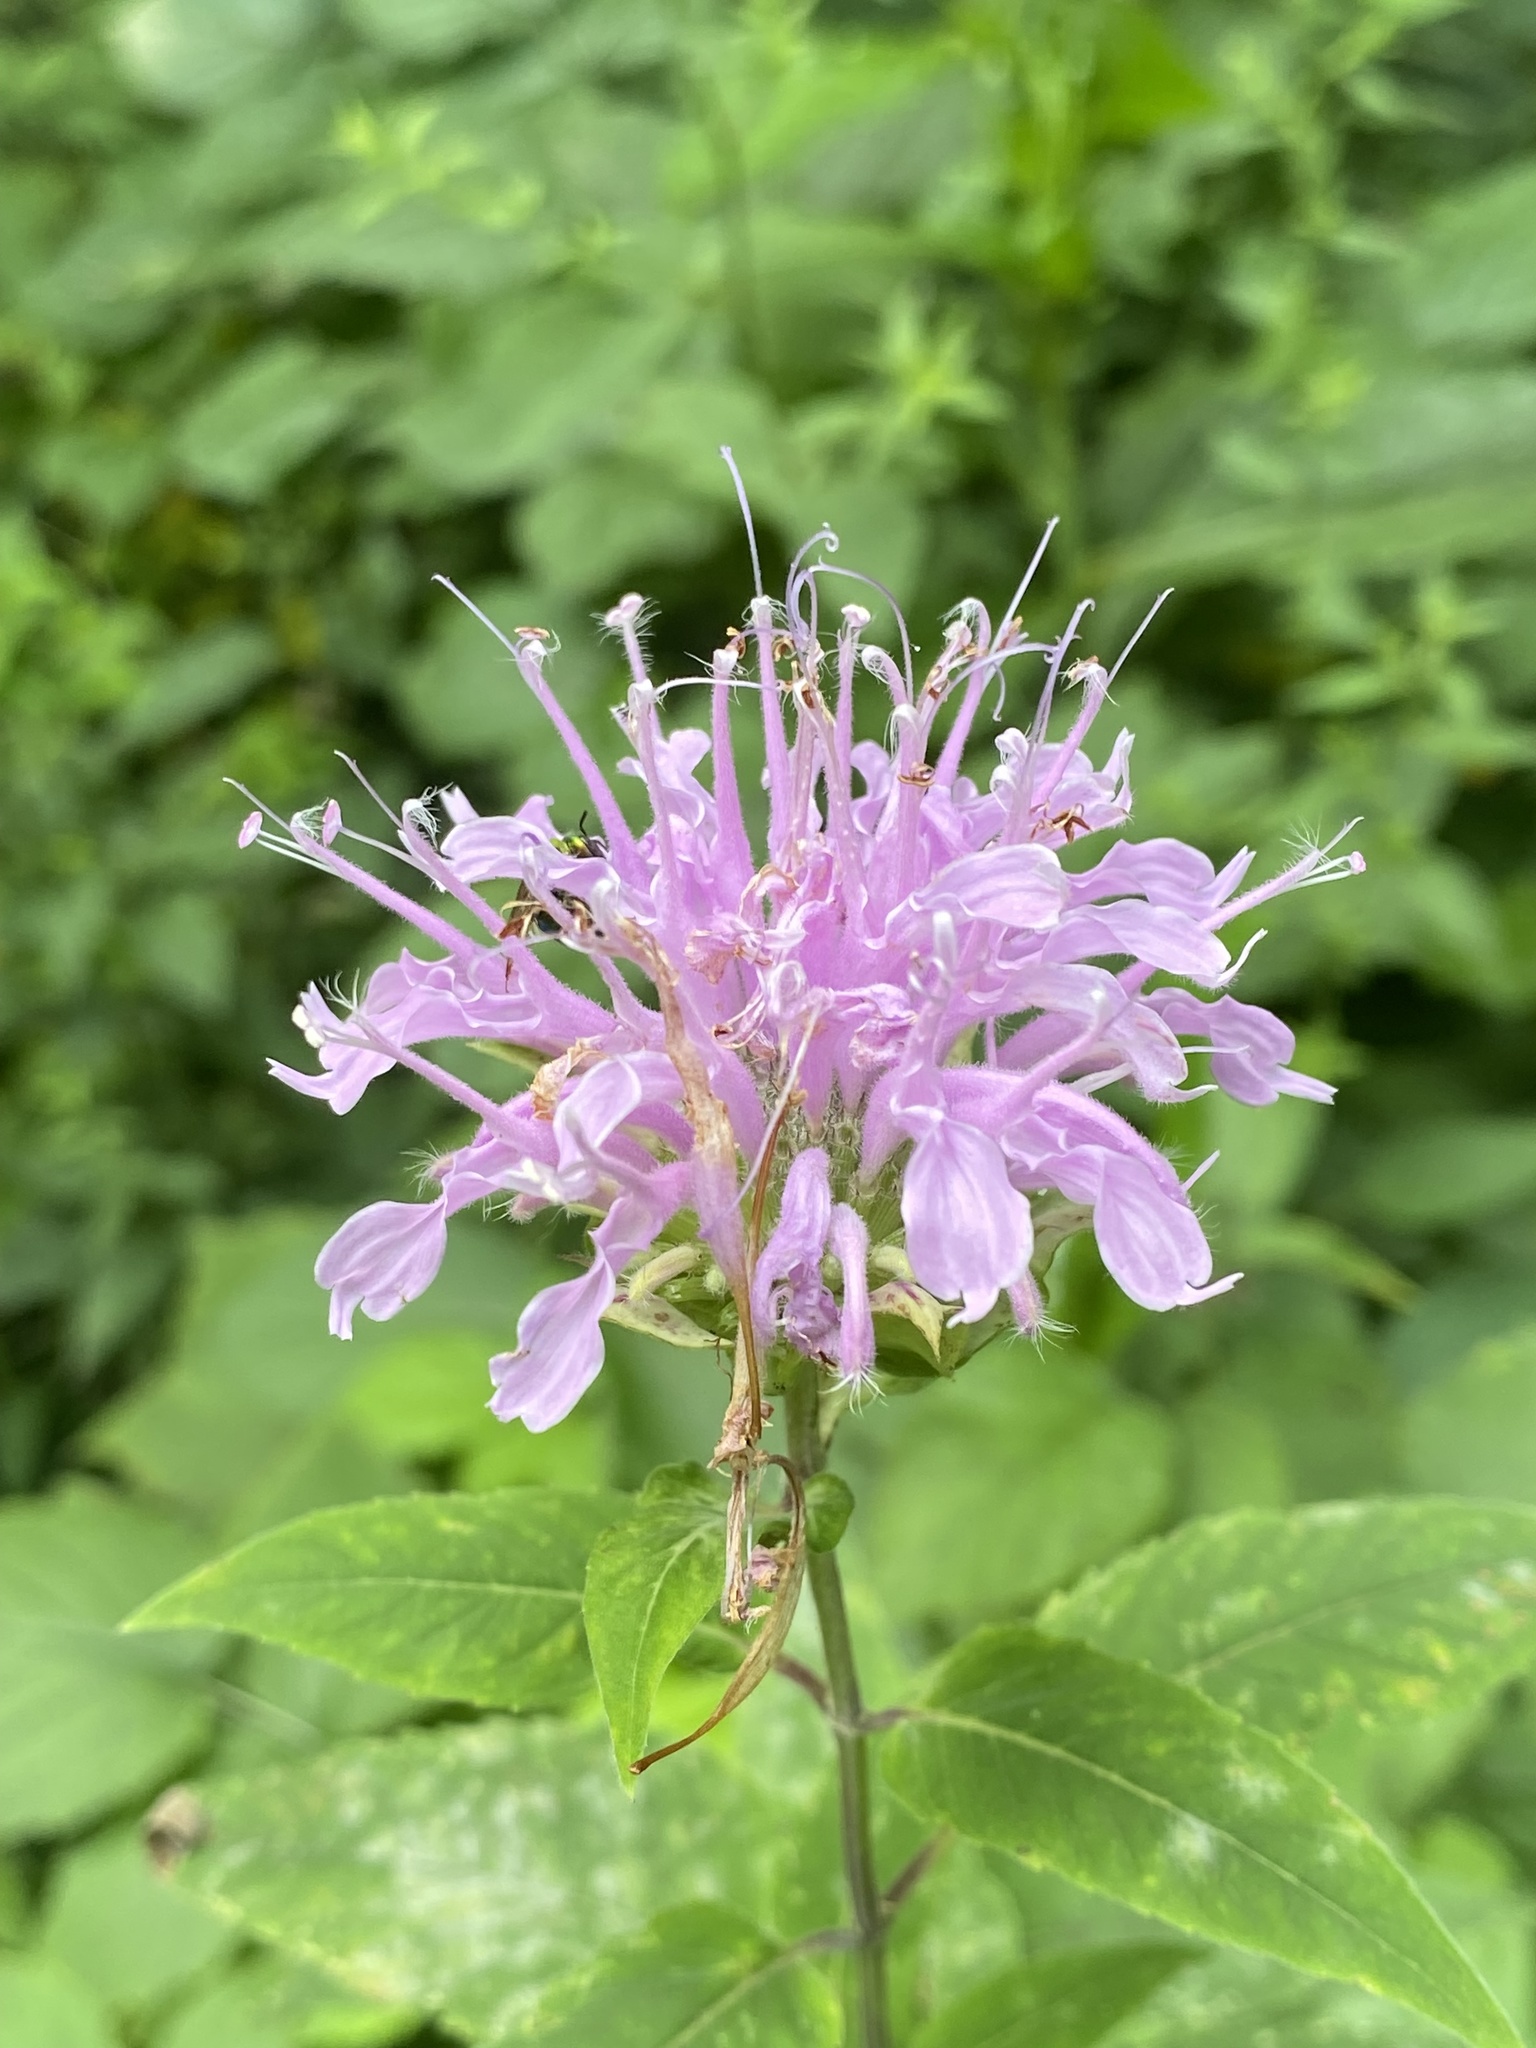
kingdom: Plantae
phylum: Tracheophyta
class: Magnoliopsida
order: Lamiales
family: Lamiaceae
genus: Monarda
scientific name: Monarda fistulosa
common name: Purple beebalm
